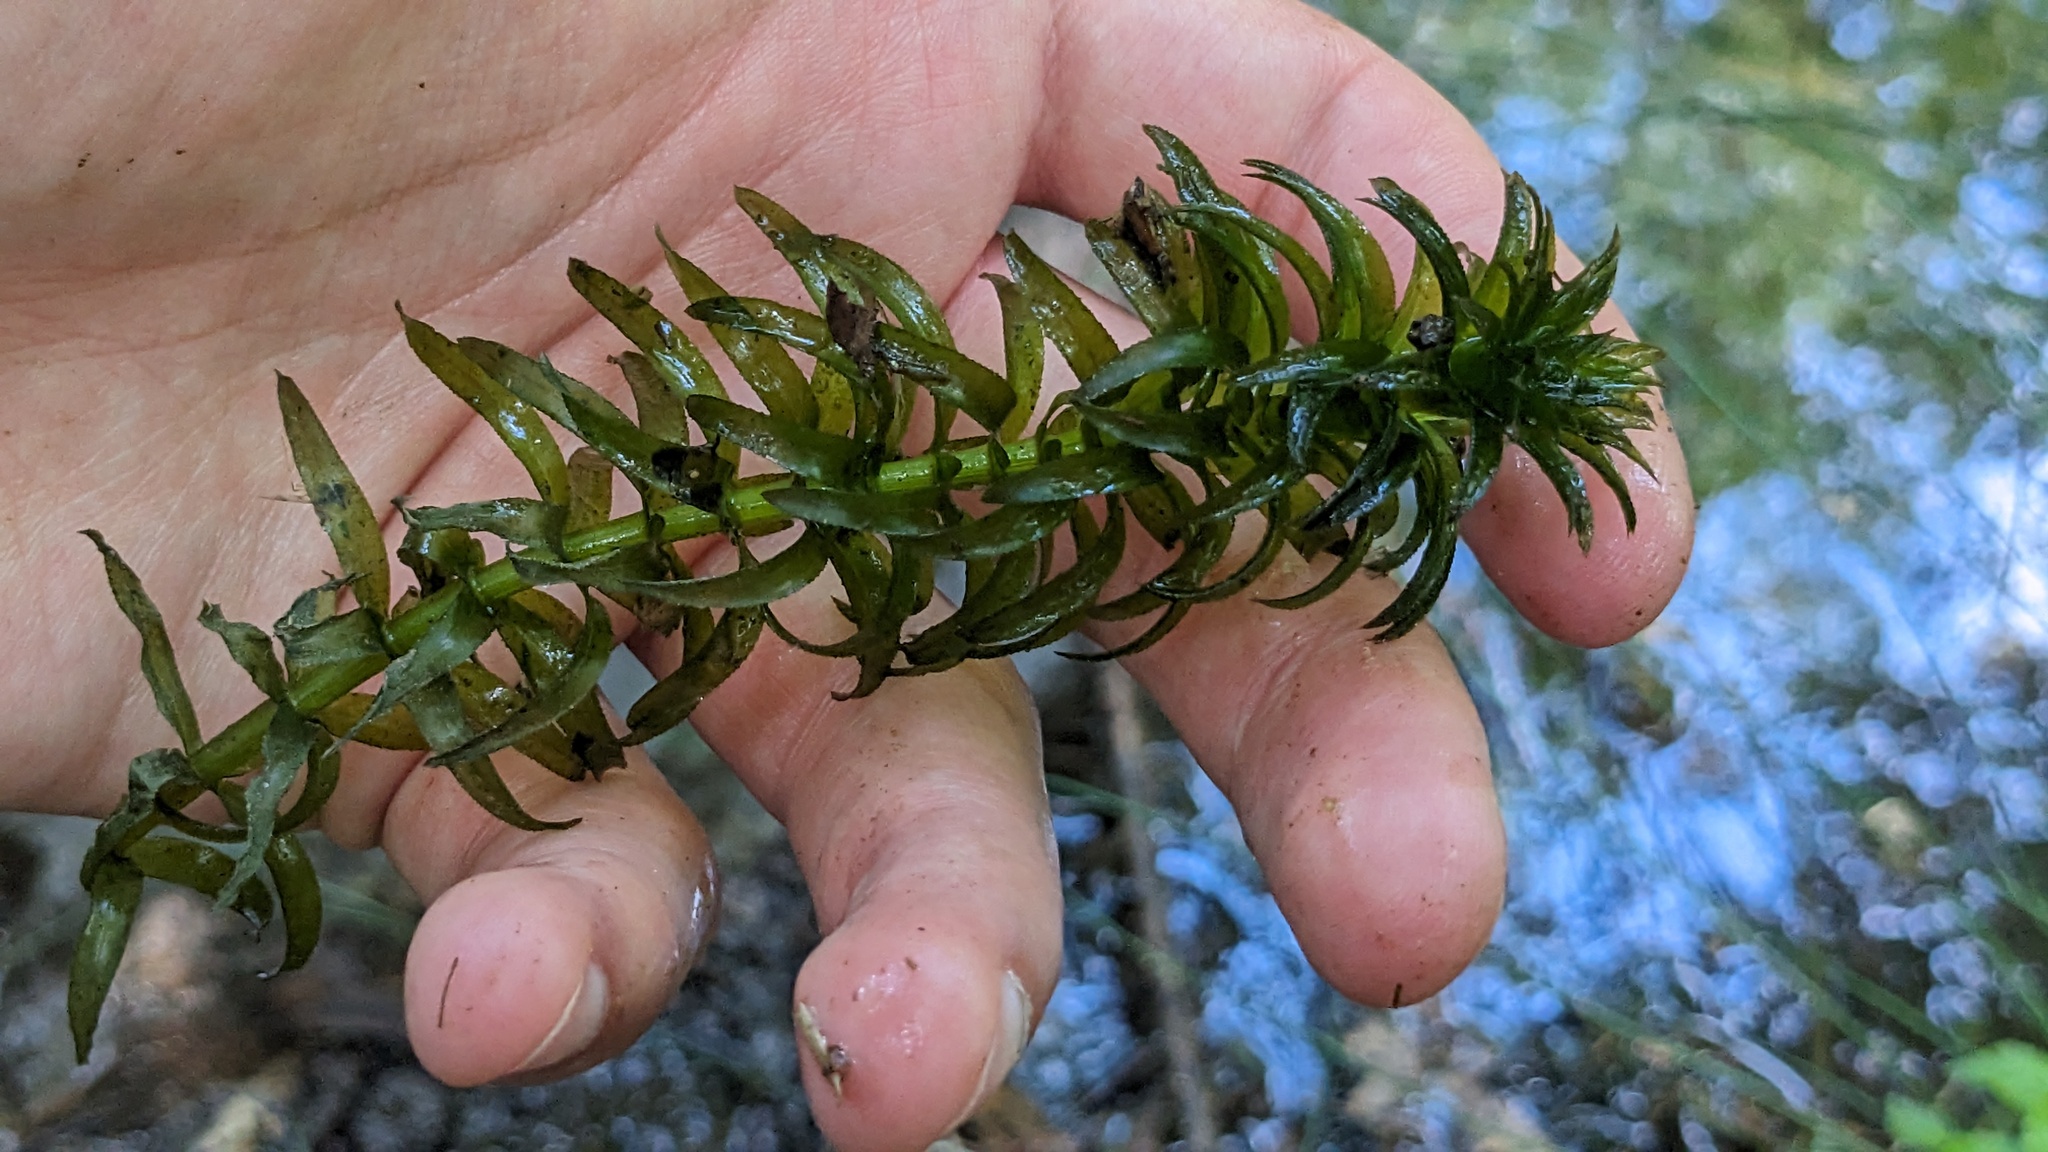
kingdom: Plantae
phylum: Tracheophyta
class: Liliopsida
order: Alismatales
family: Hydrocharitaceae
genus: Elodea
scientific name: Elodea densa
